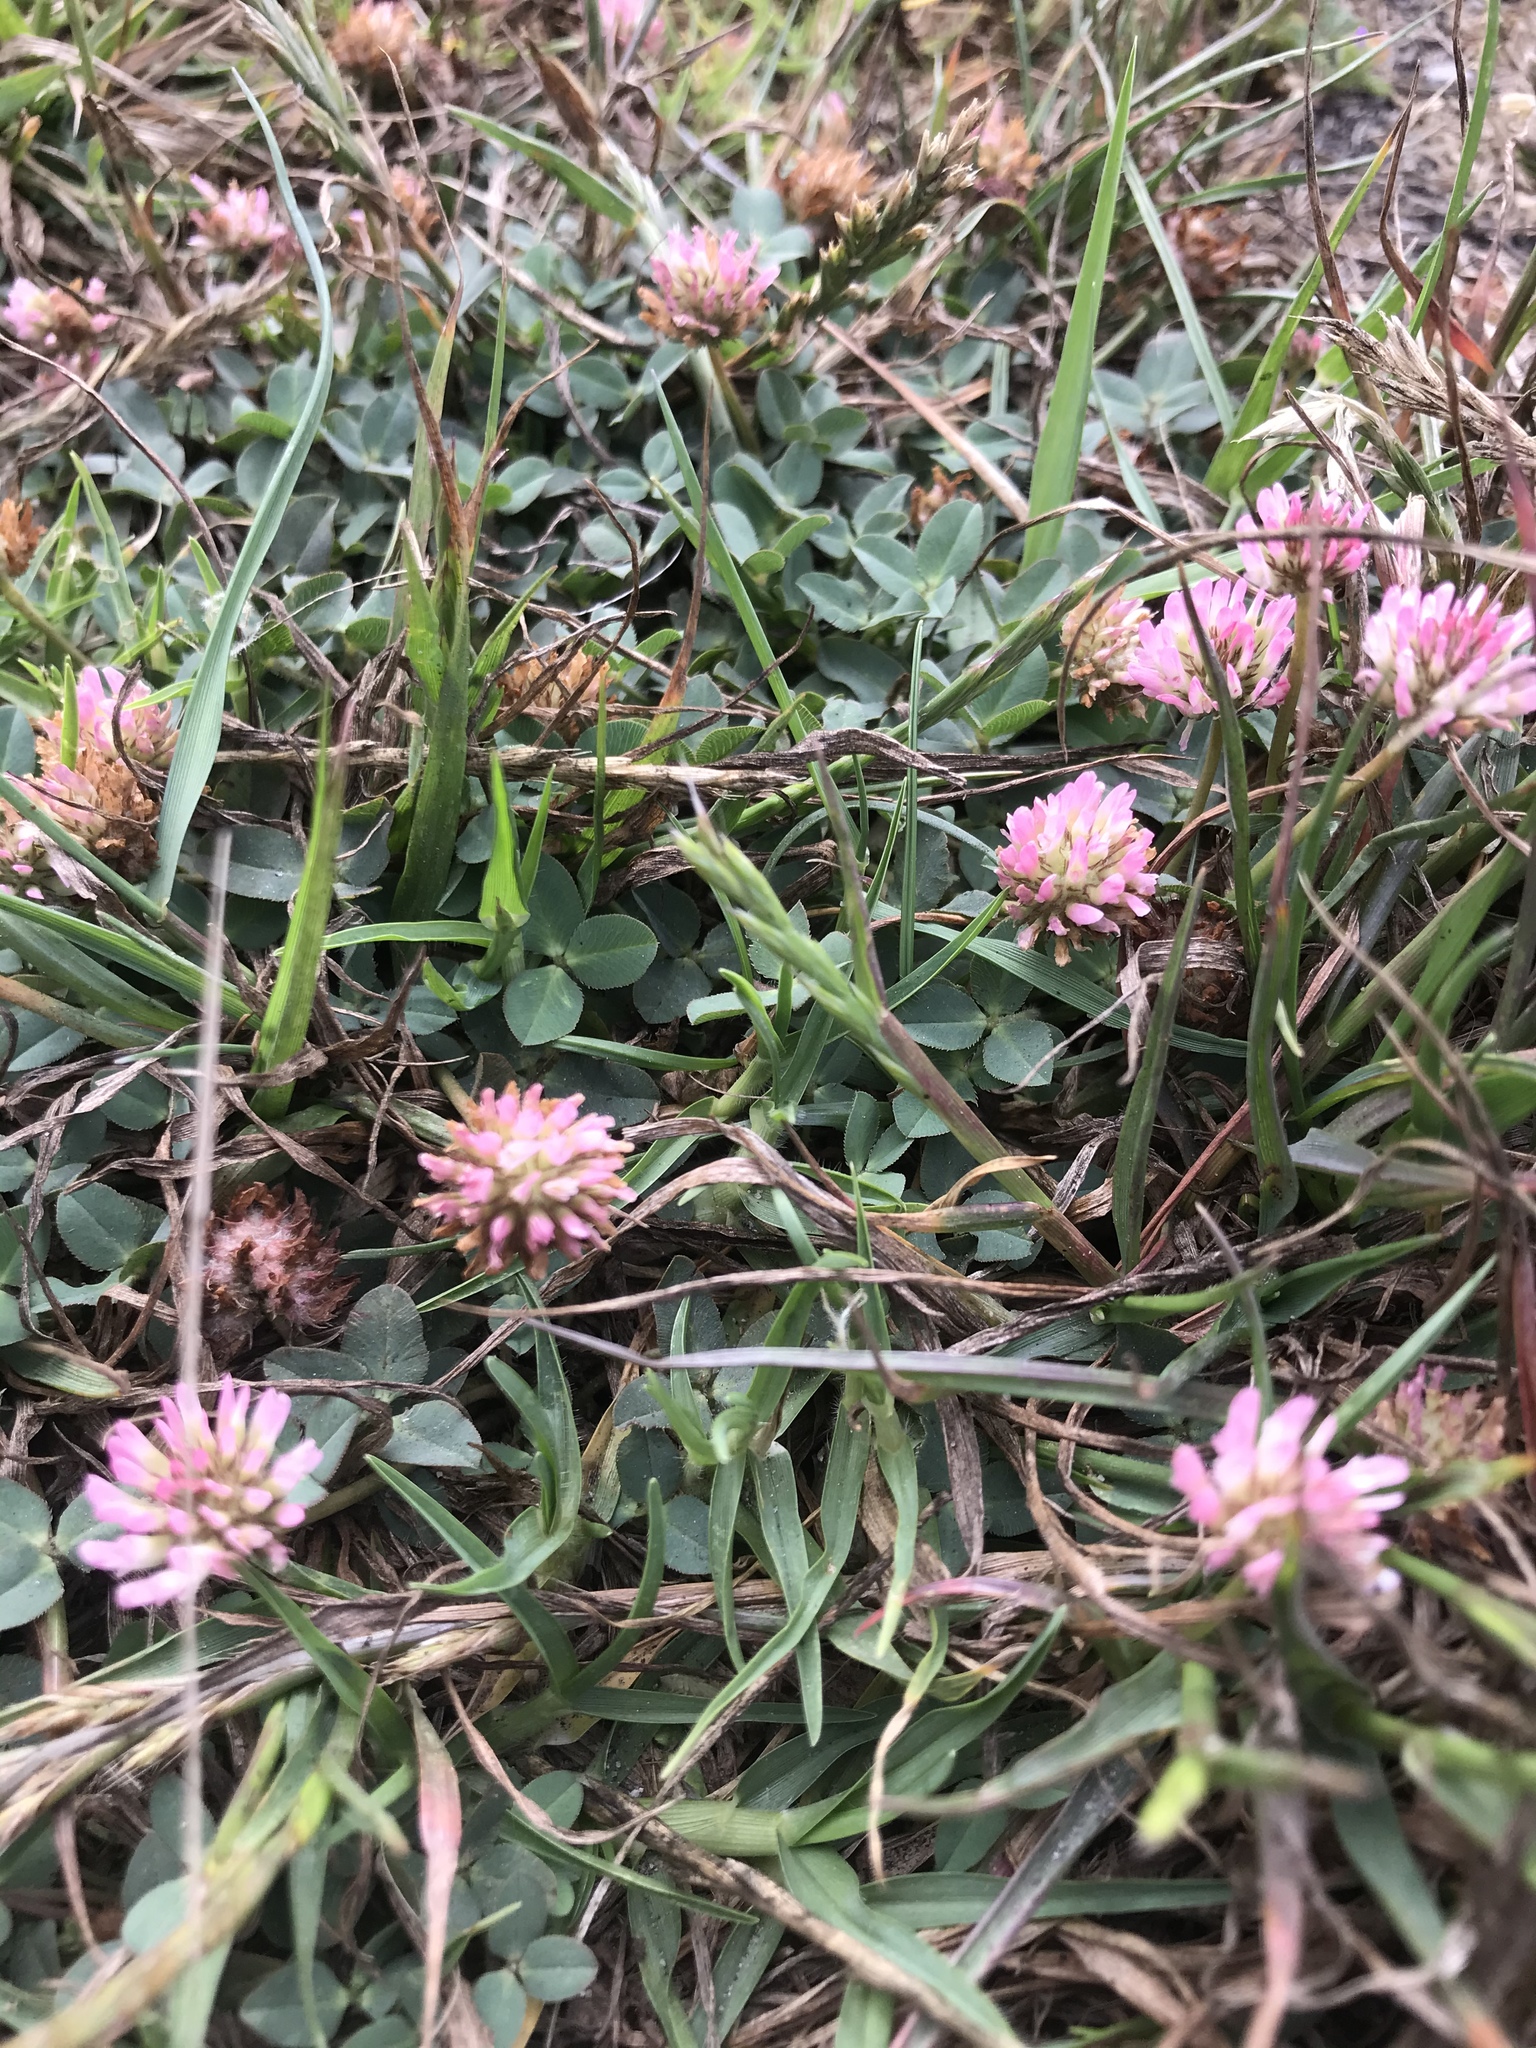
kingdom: Plantae
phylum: Tracheophyta
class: Magnoliopsida
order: Fabales
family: Fabaceae
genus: Trifolium
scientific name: Trifolium fragiferum
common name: Strawberry clover
